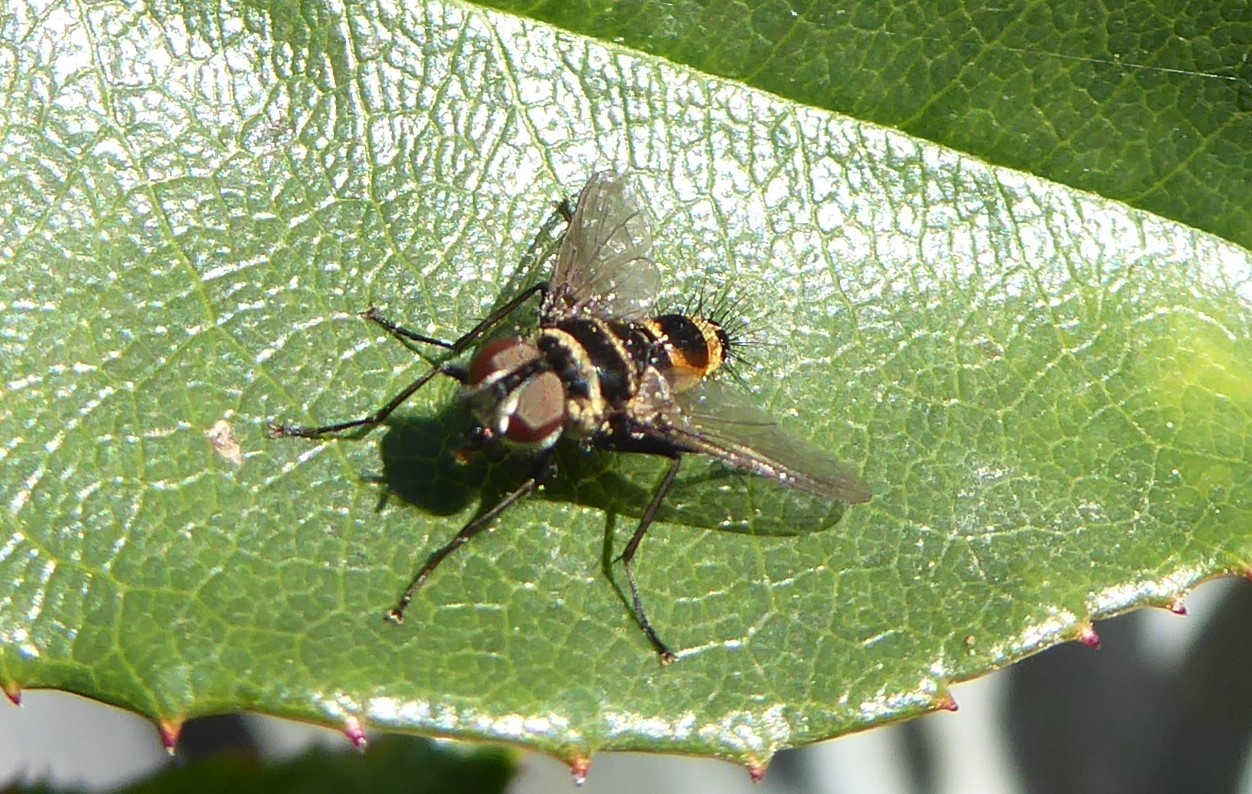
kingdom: Animalia
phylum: Arthropoda
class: Insecta
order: Diptera
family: Tachinidae
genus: Trigonospila
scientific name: Trigonospila brevifacies
